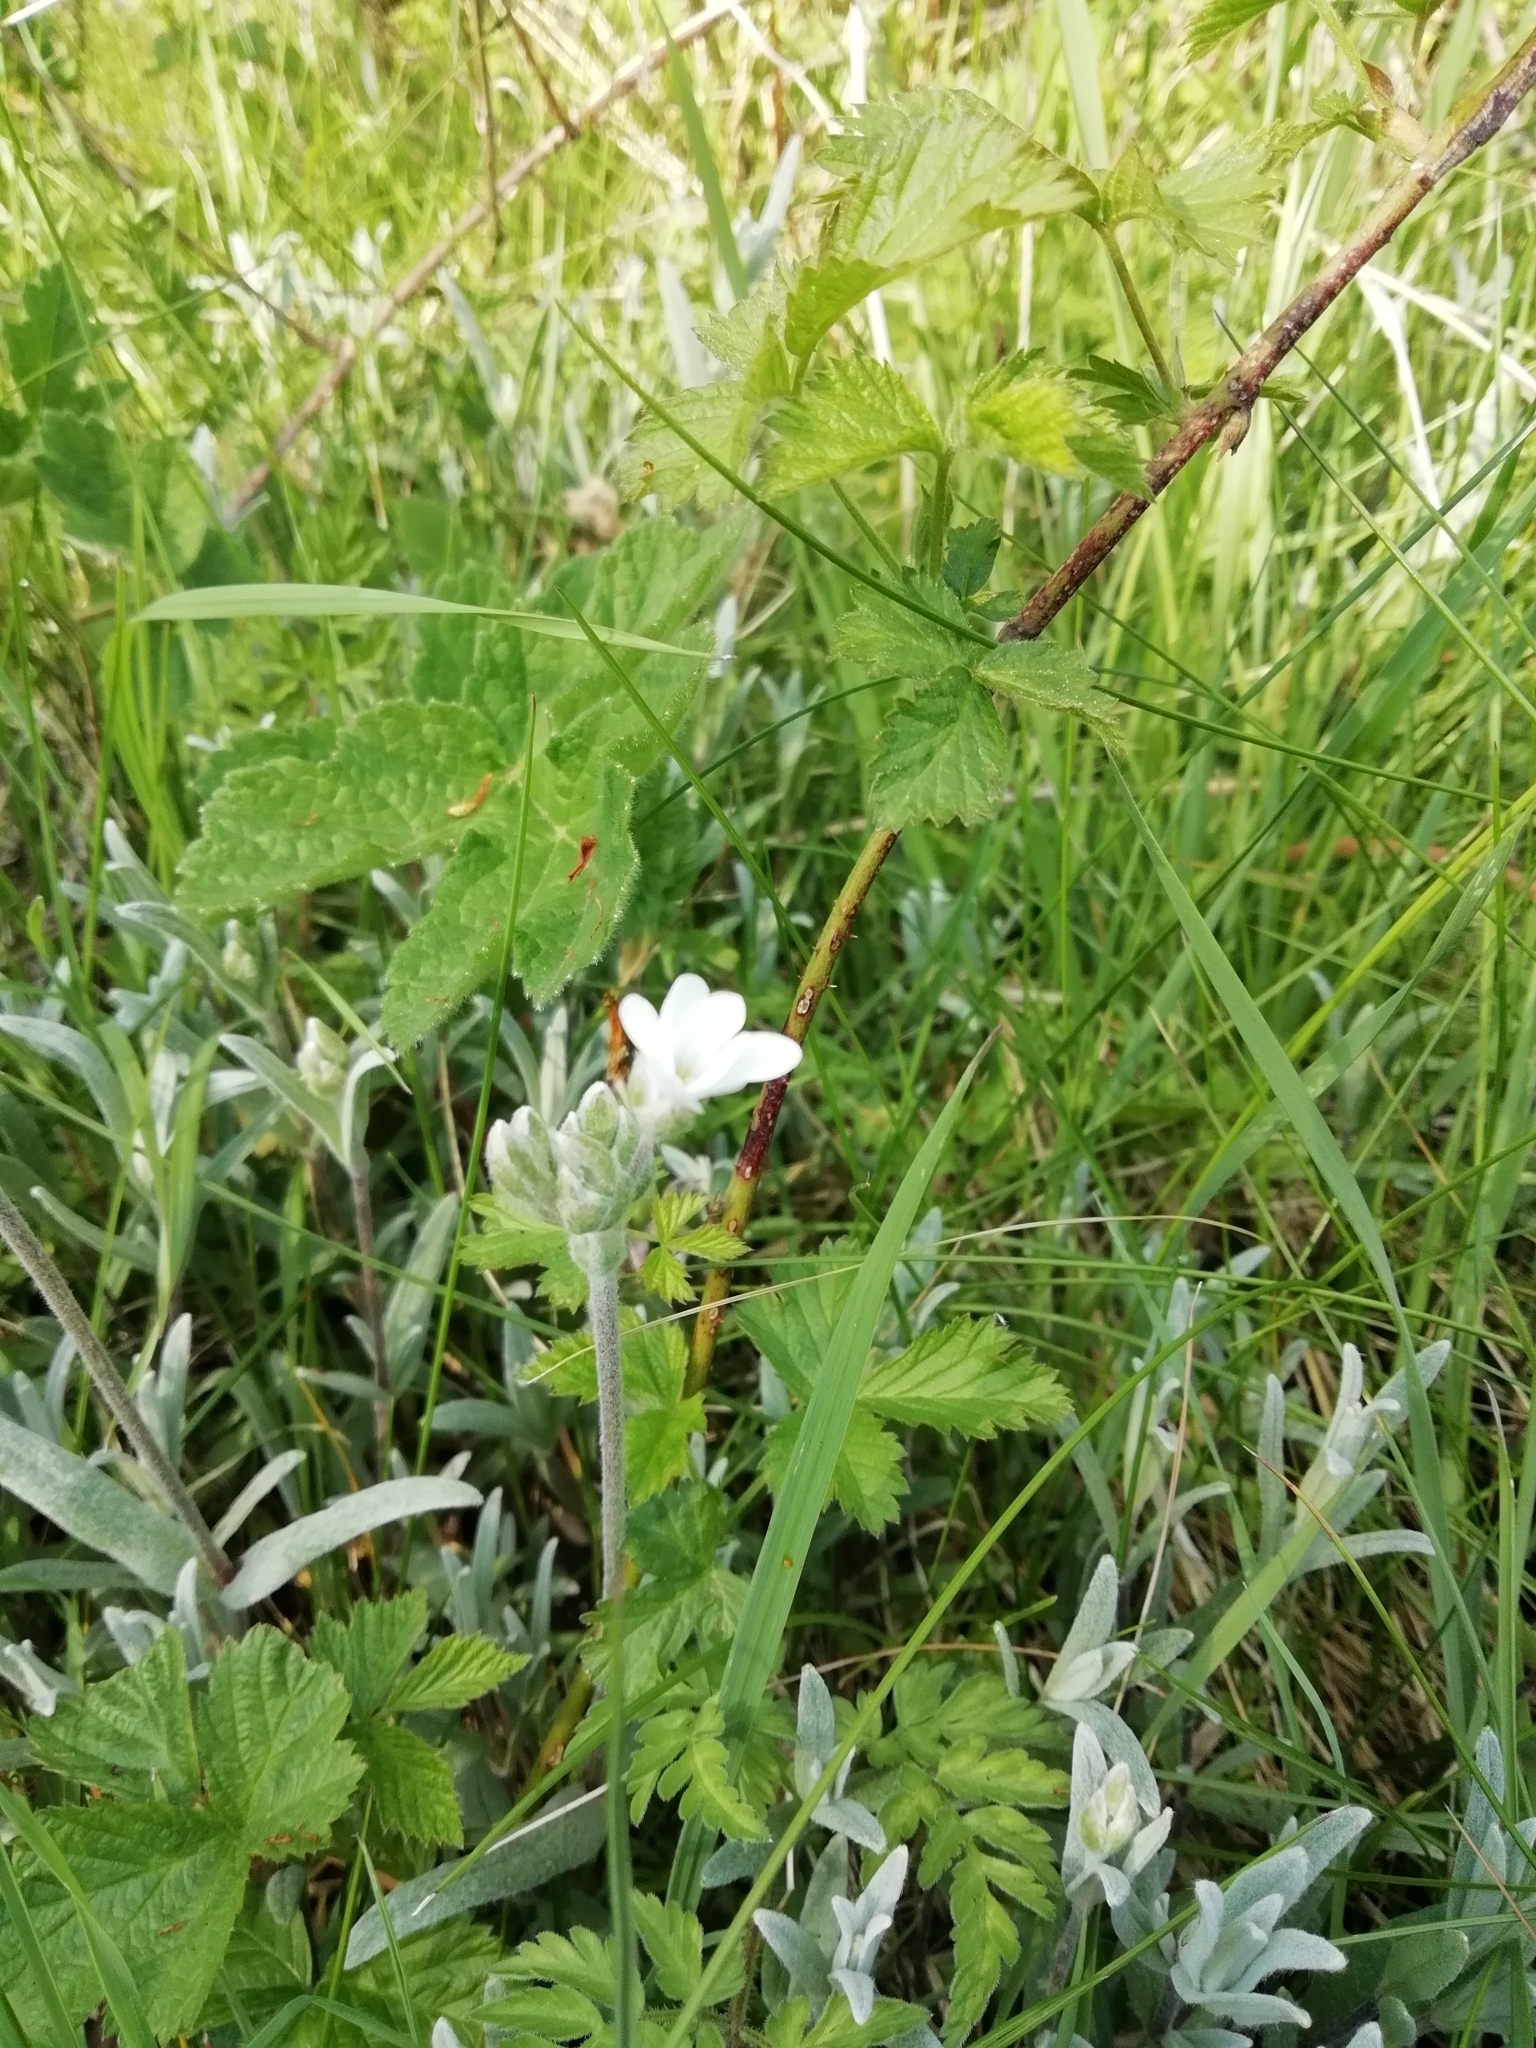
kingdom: Plantae
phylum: Tracheophyta
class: Magnoliopsida
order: Caryophyllales
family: Caryophyllaceae
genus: Cerastium
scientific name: Cerastium tomentosum
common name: Snow-in-summer
